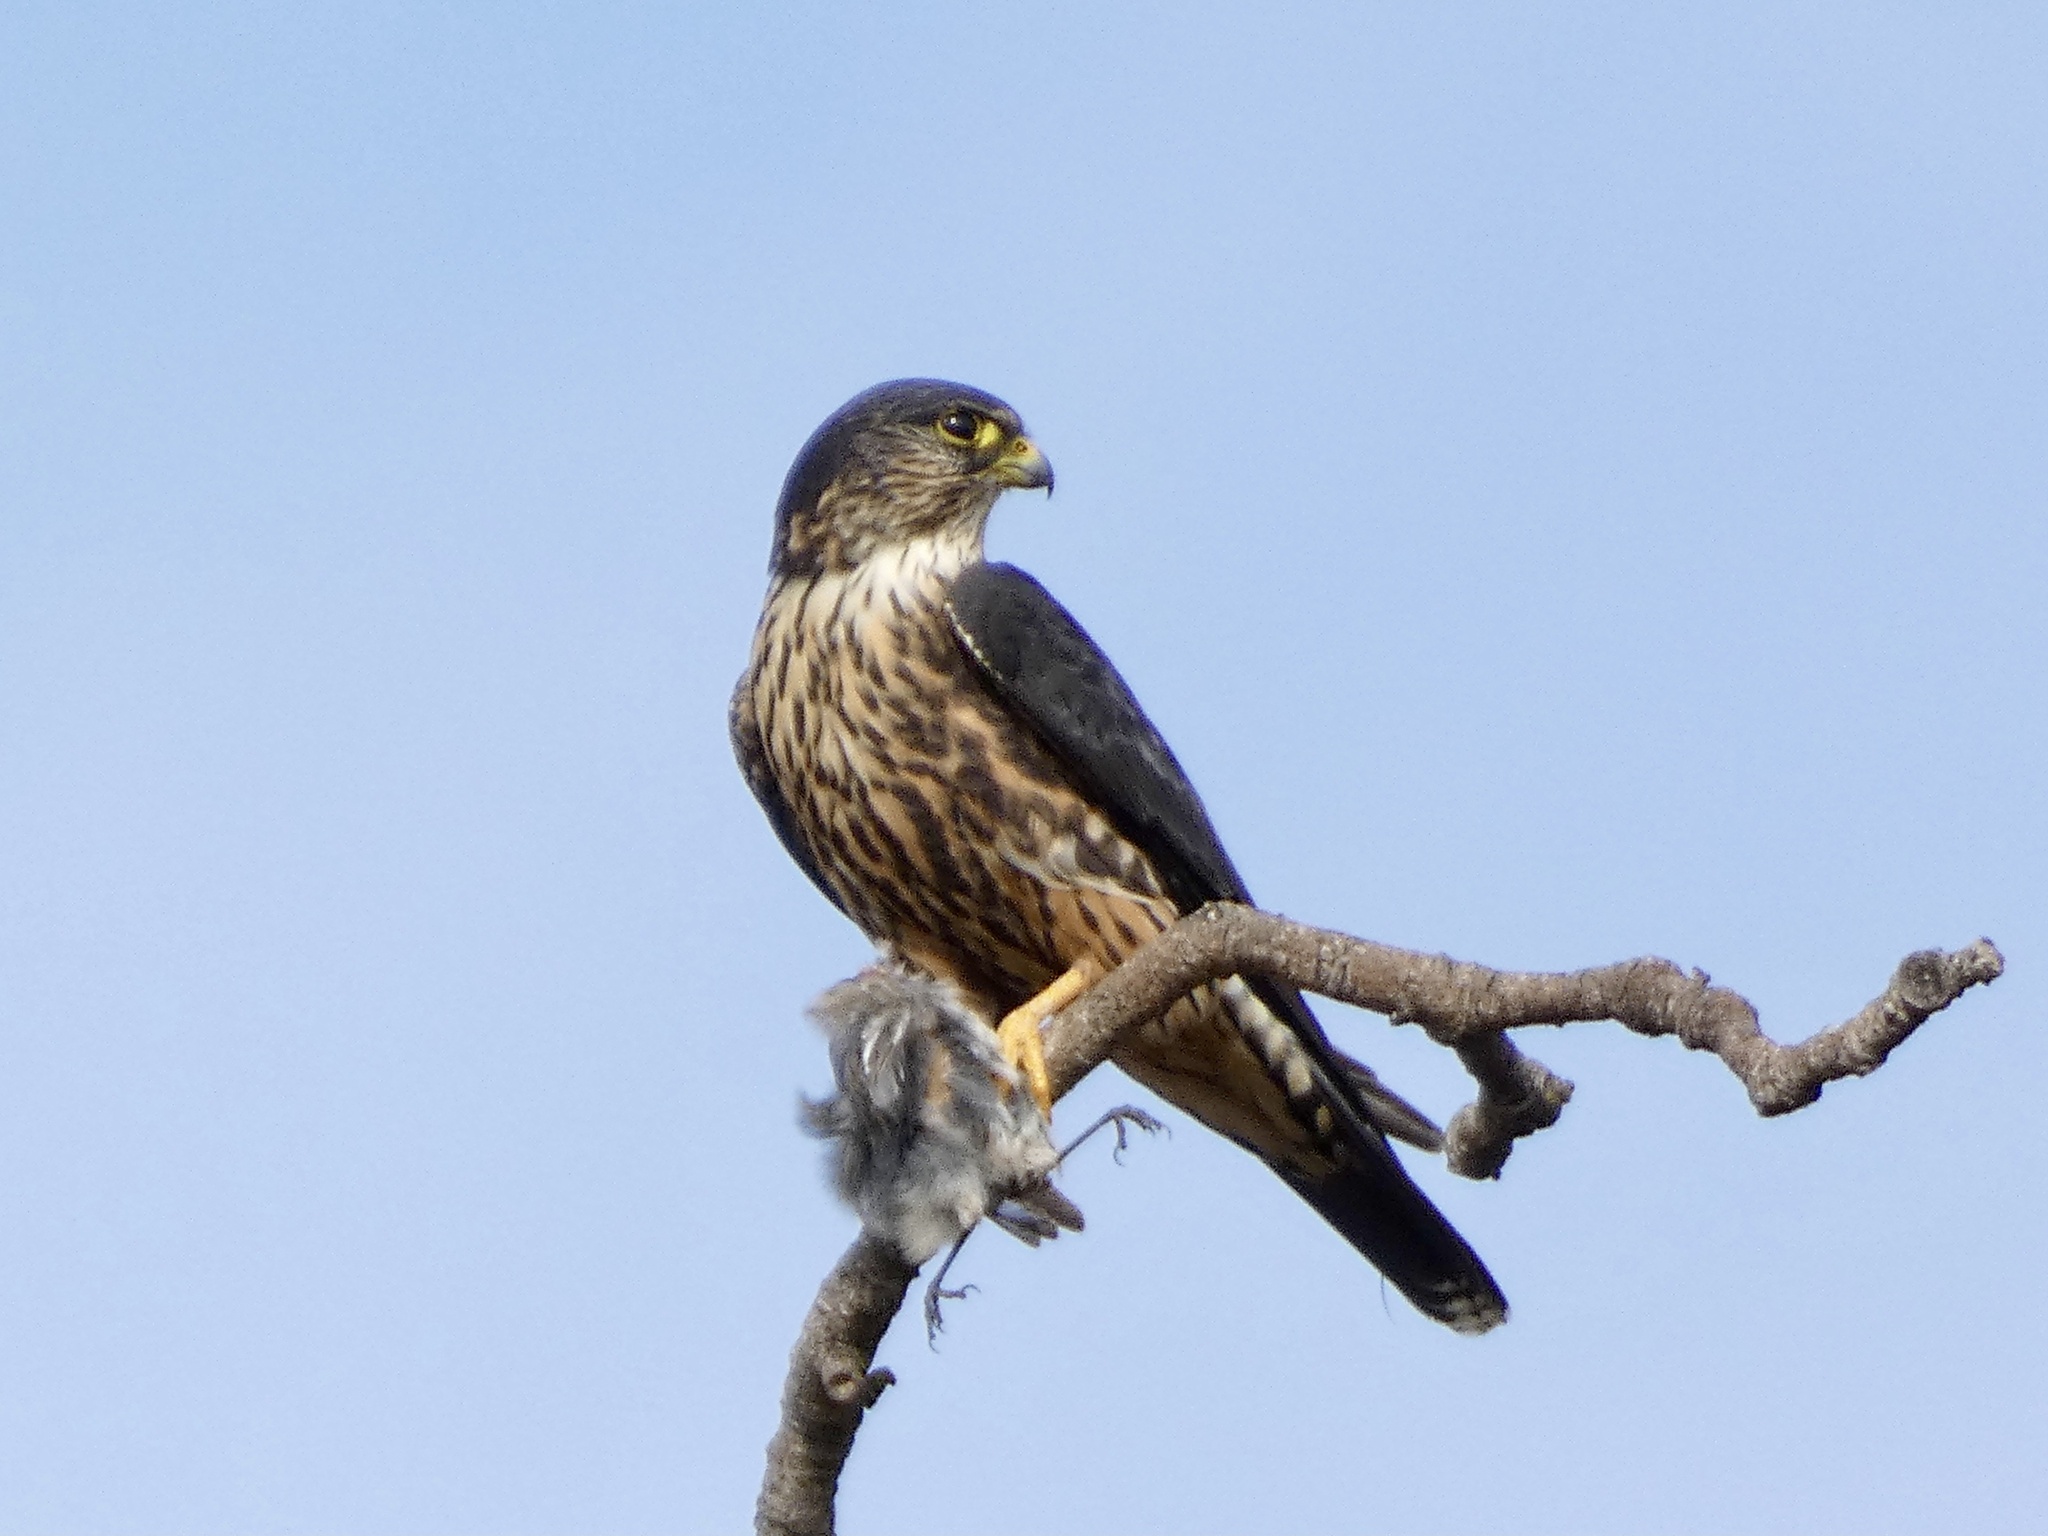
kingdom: Animalia
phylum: Chordata
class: Aves
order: Falconiformes
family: Falconidae
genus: Falco
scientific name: Falco columbarius
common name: Merlin
